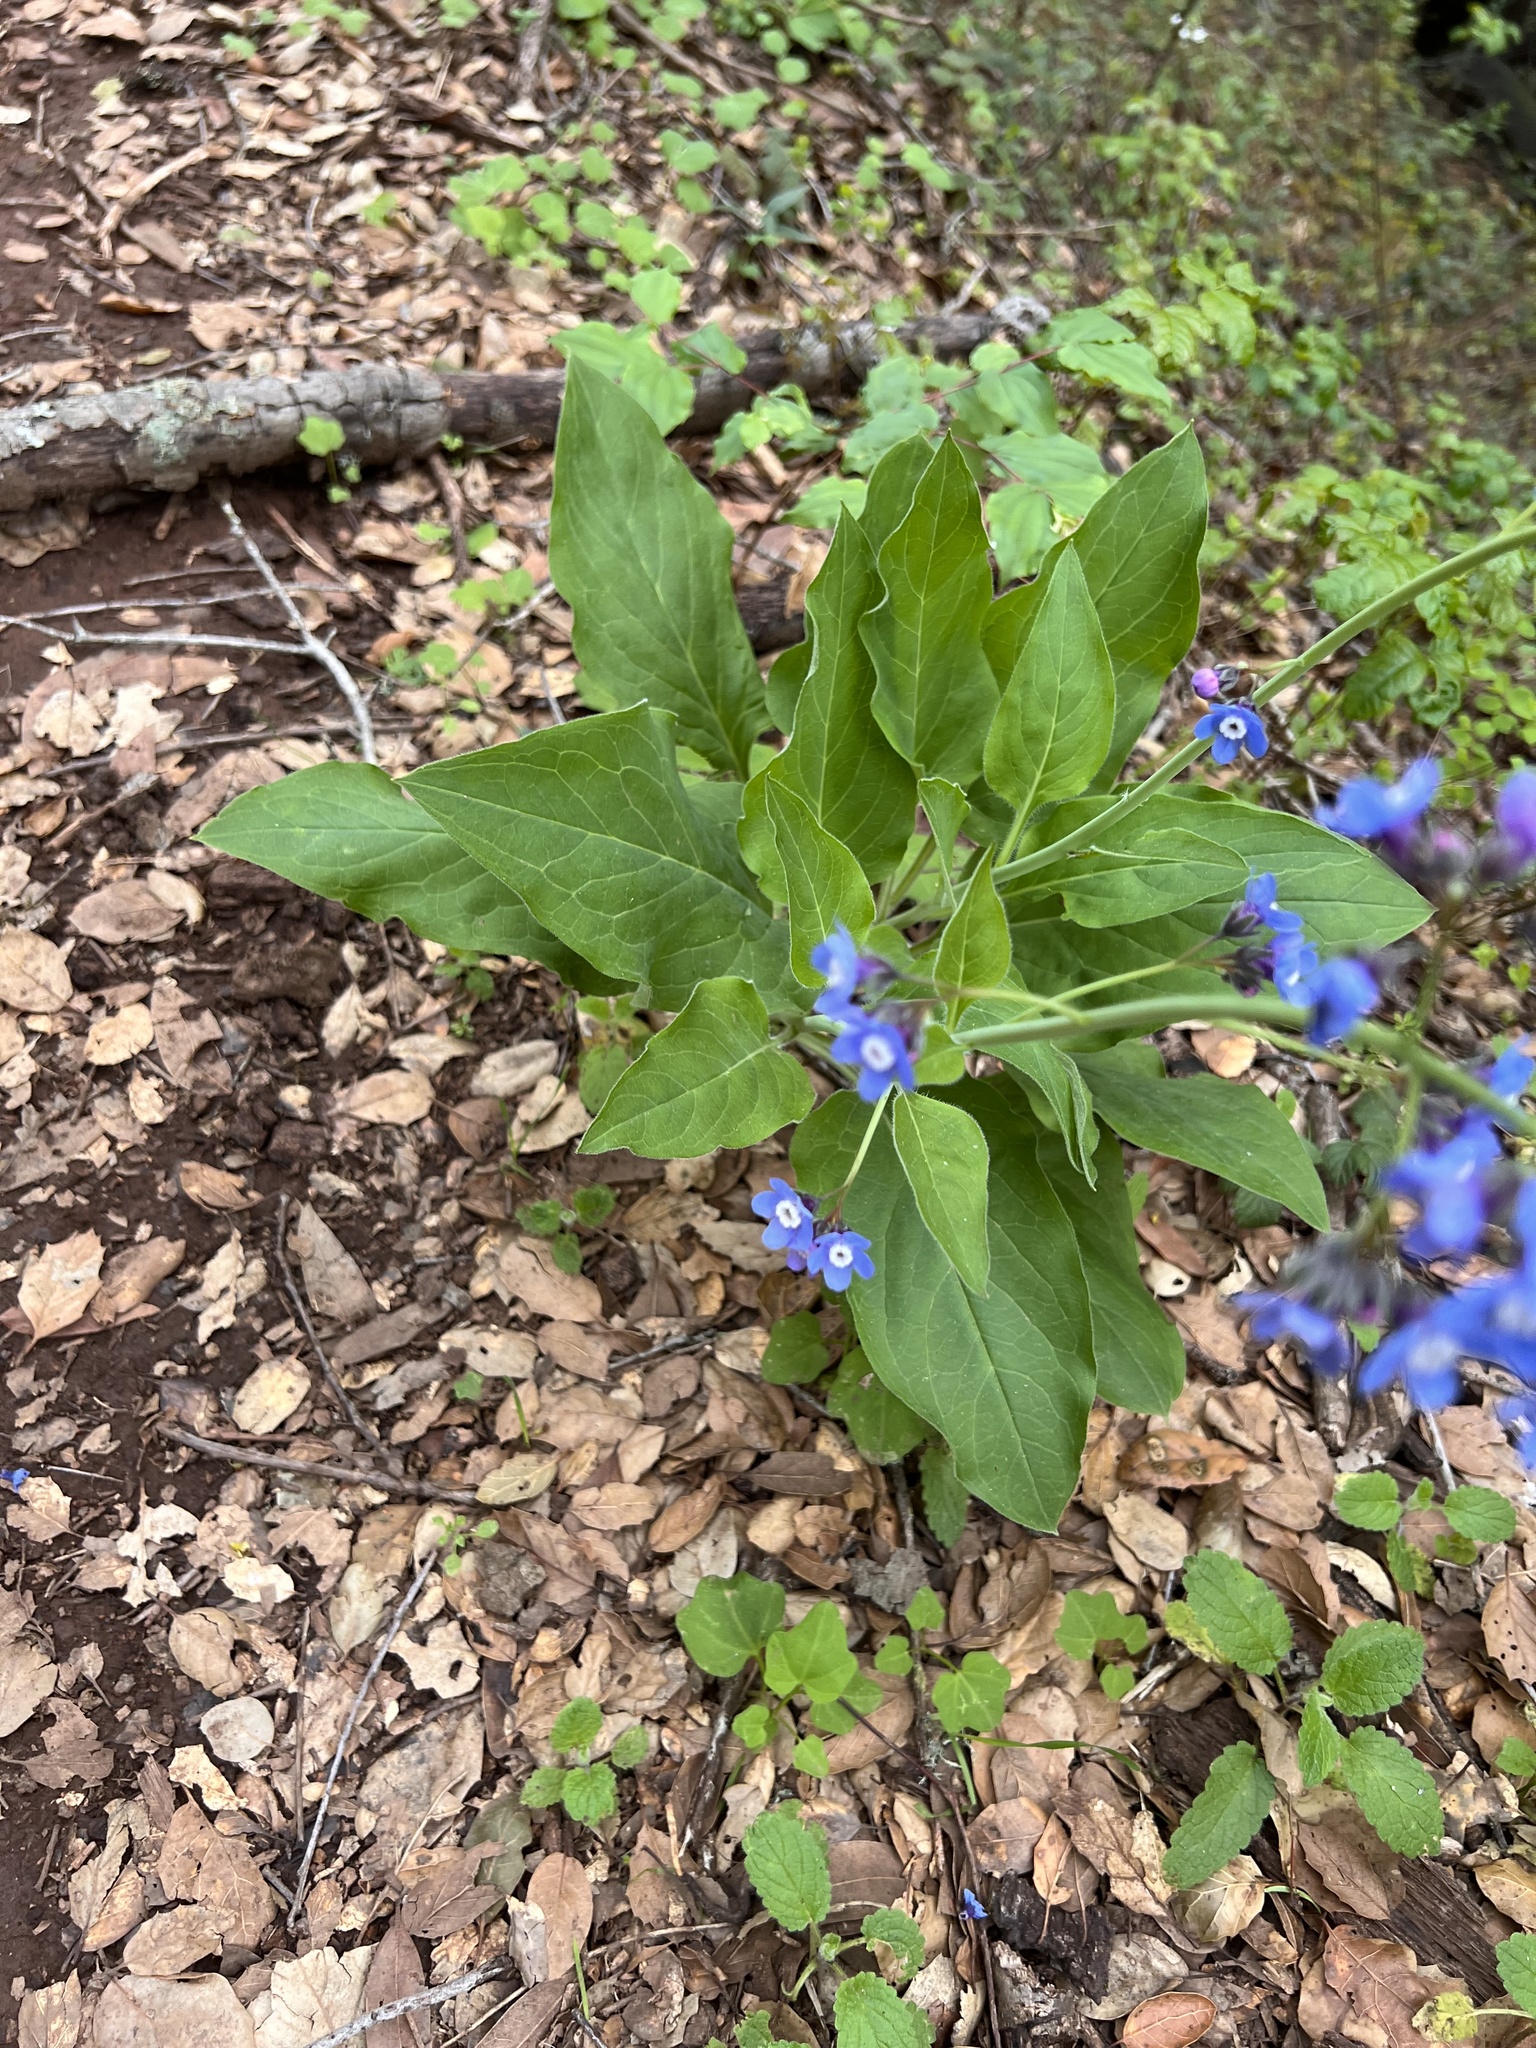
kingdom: Plantae
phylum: Tracheophyta
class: Magnoliopsida
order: Boraginales
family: Boraginaceae
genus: Adelinia
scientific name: Adelinia grande
